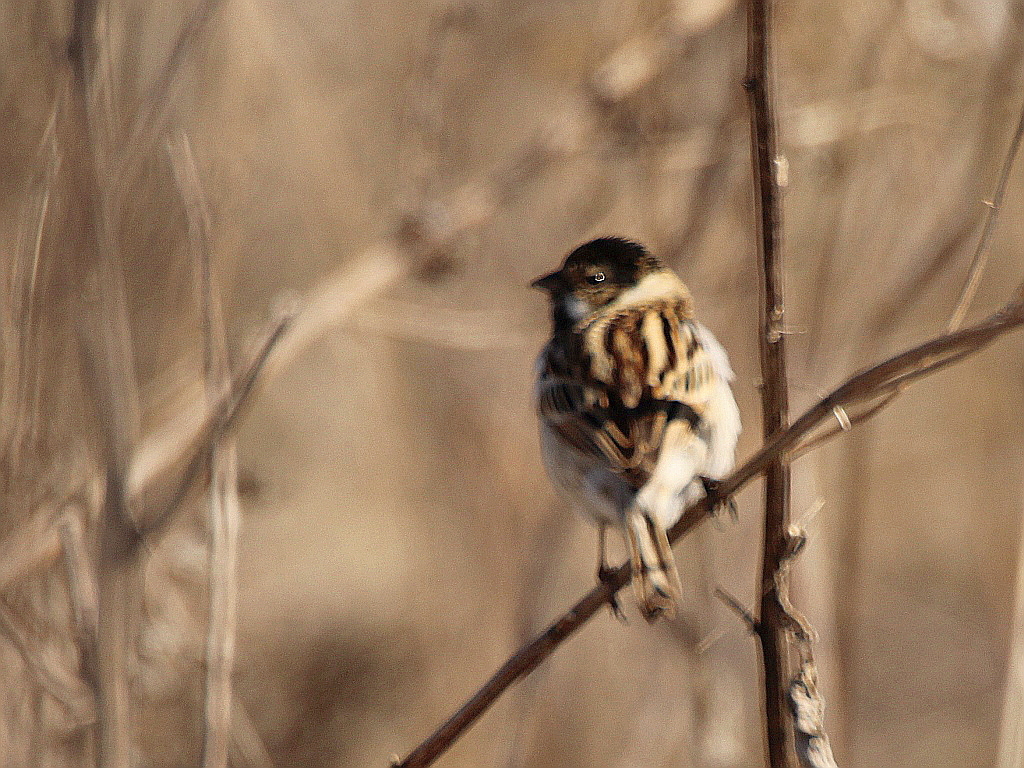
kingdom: Animalia
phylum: Chordata
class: Aves
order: Passeriformes
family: Emberizidae
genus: Emberiza
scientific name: Emberiza pallasi
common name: Pallas's reed bunting
